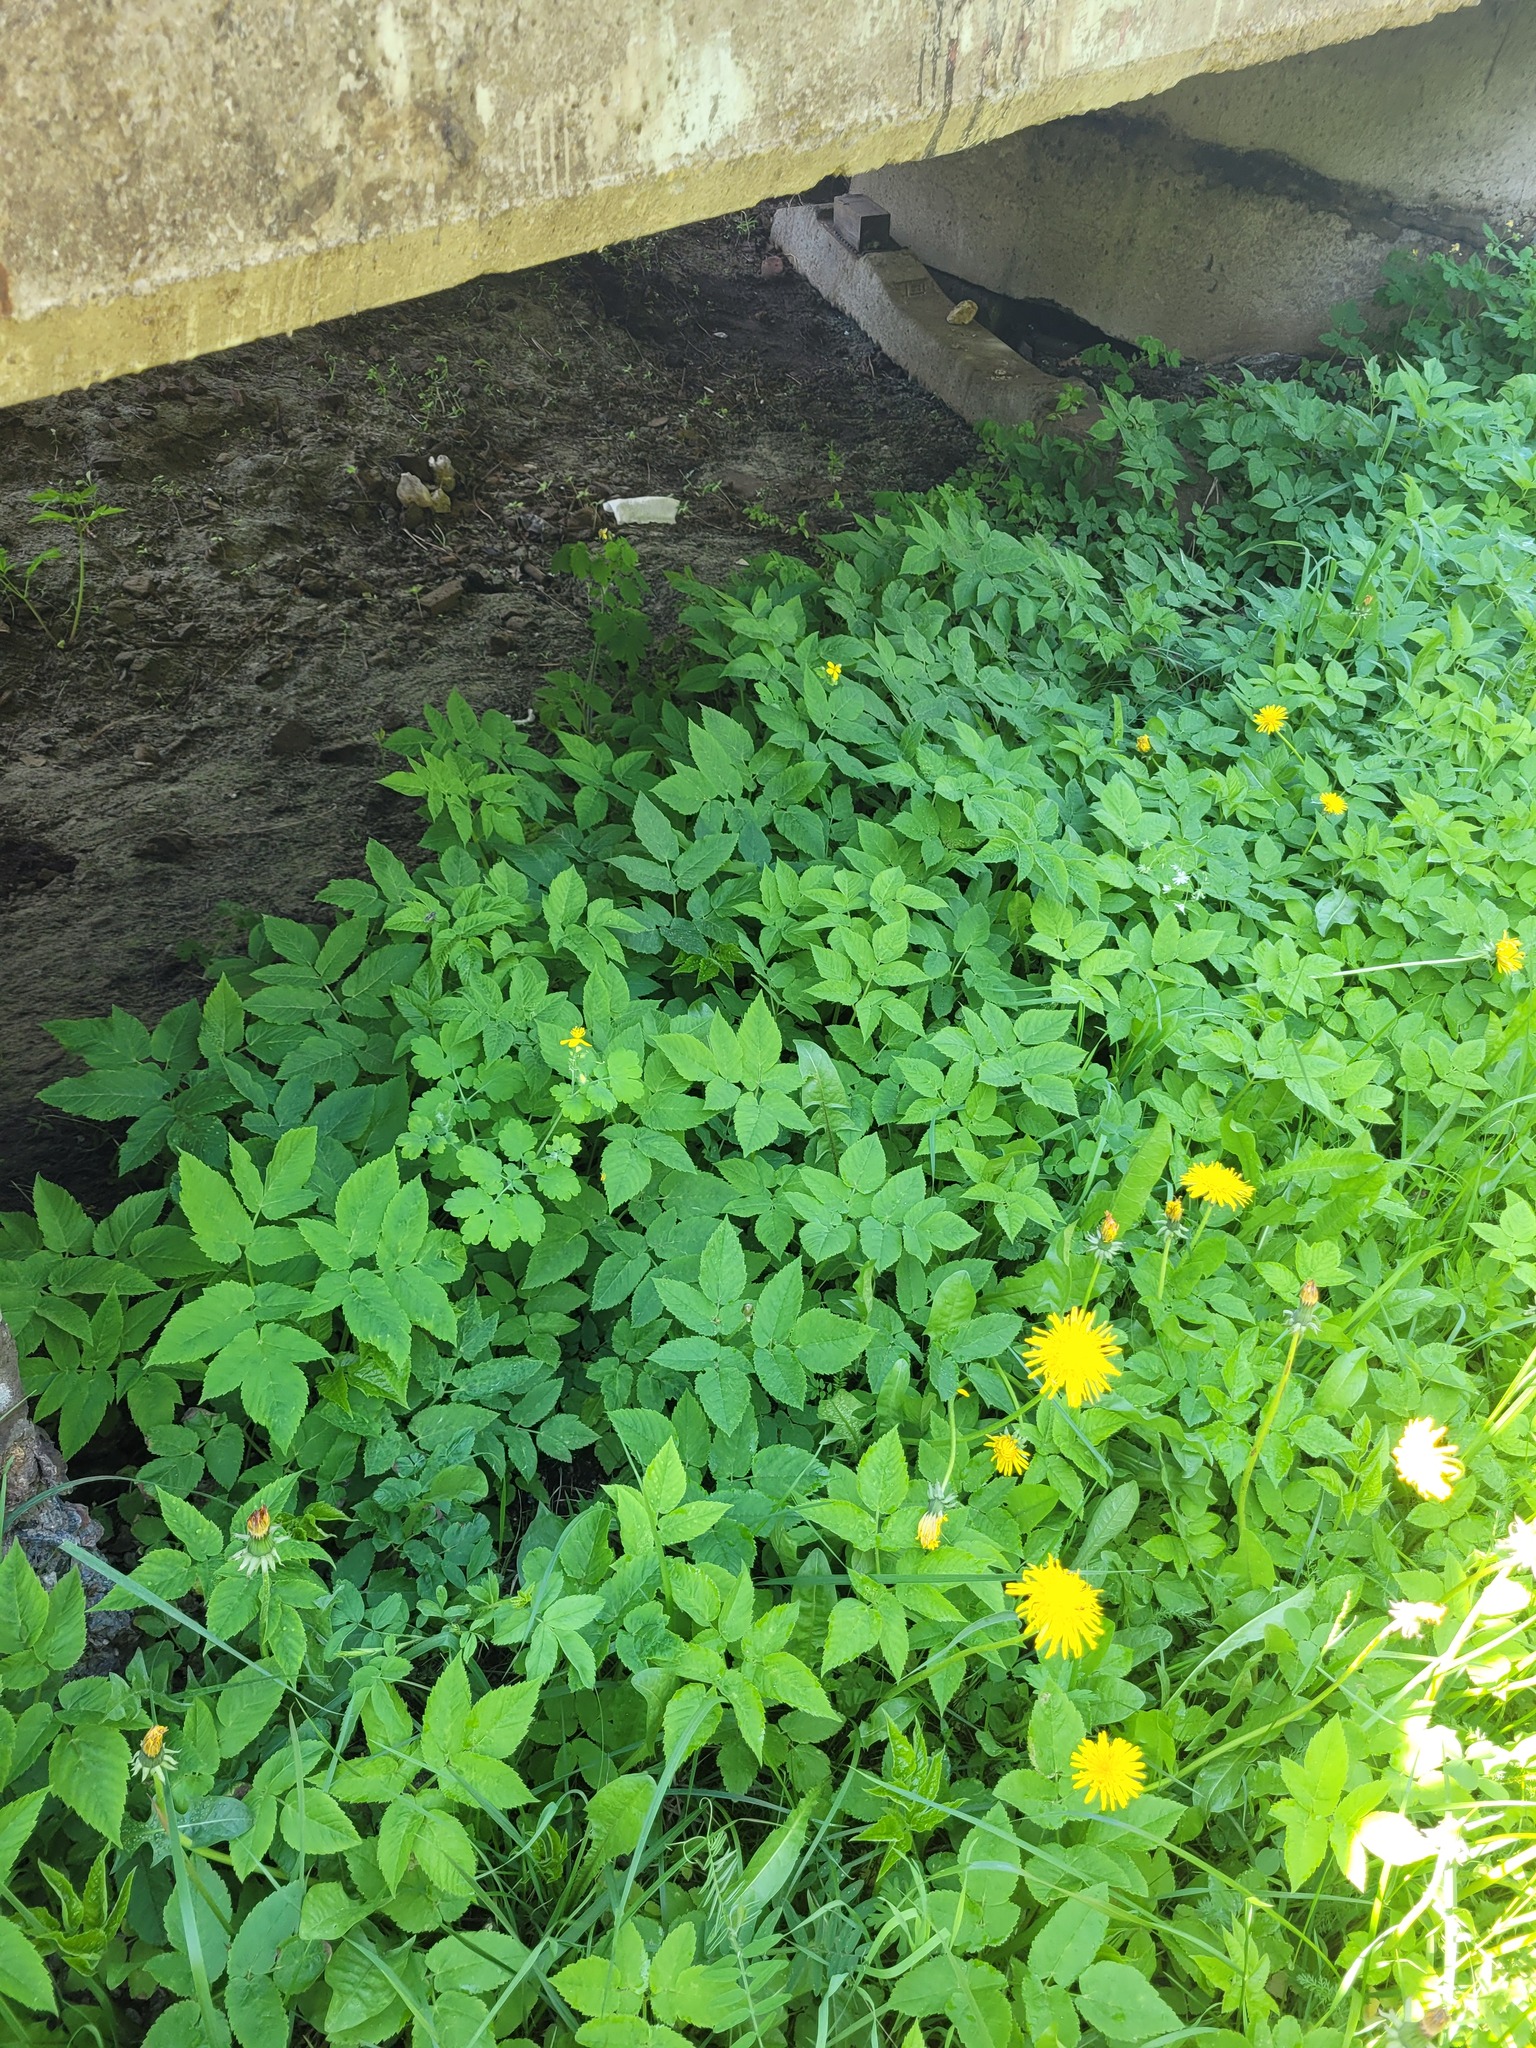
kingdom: Plantae
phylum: Tracheophyta
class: Magnoliopsida
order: Apiales
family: Apiaceae
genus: Aegopodium
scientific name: Aegopodium podagraria
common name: Ground-elder
